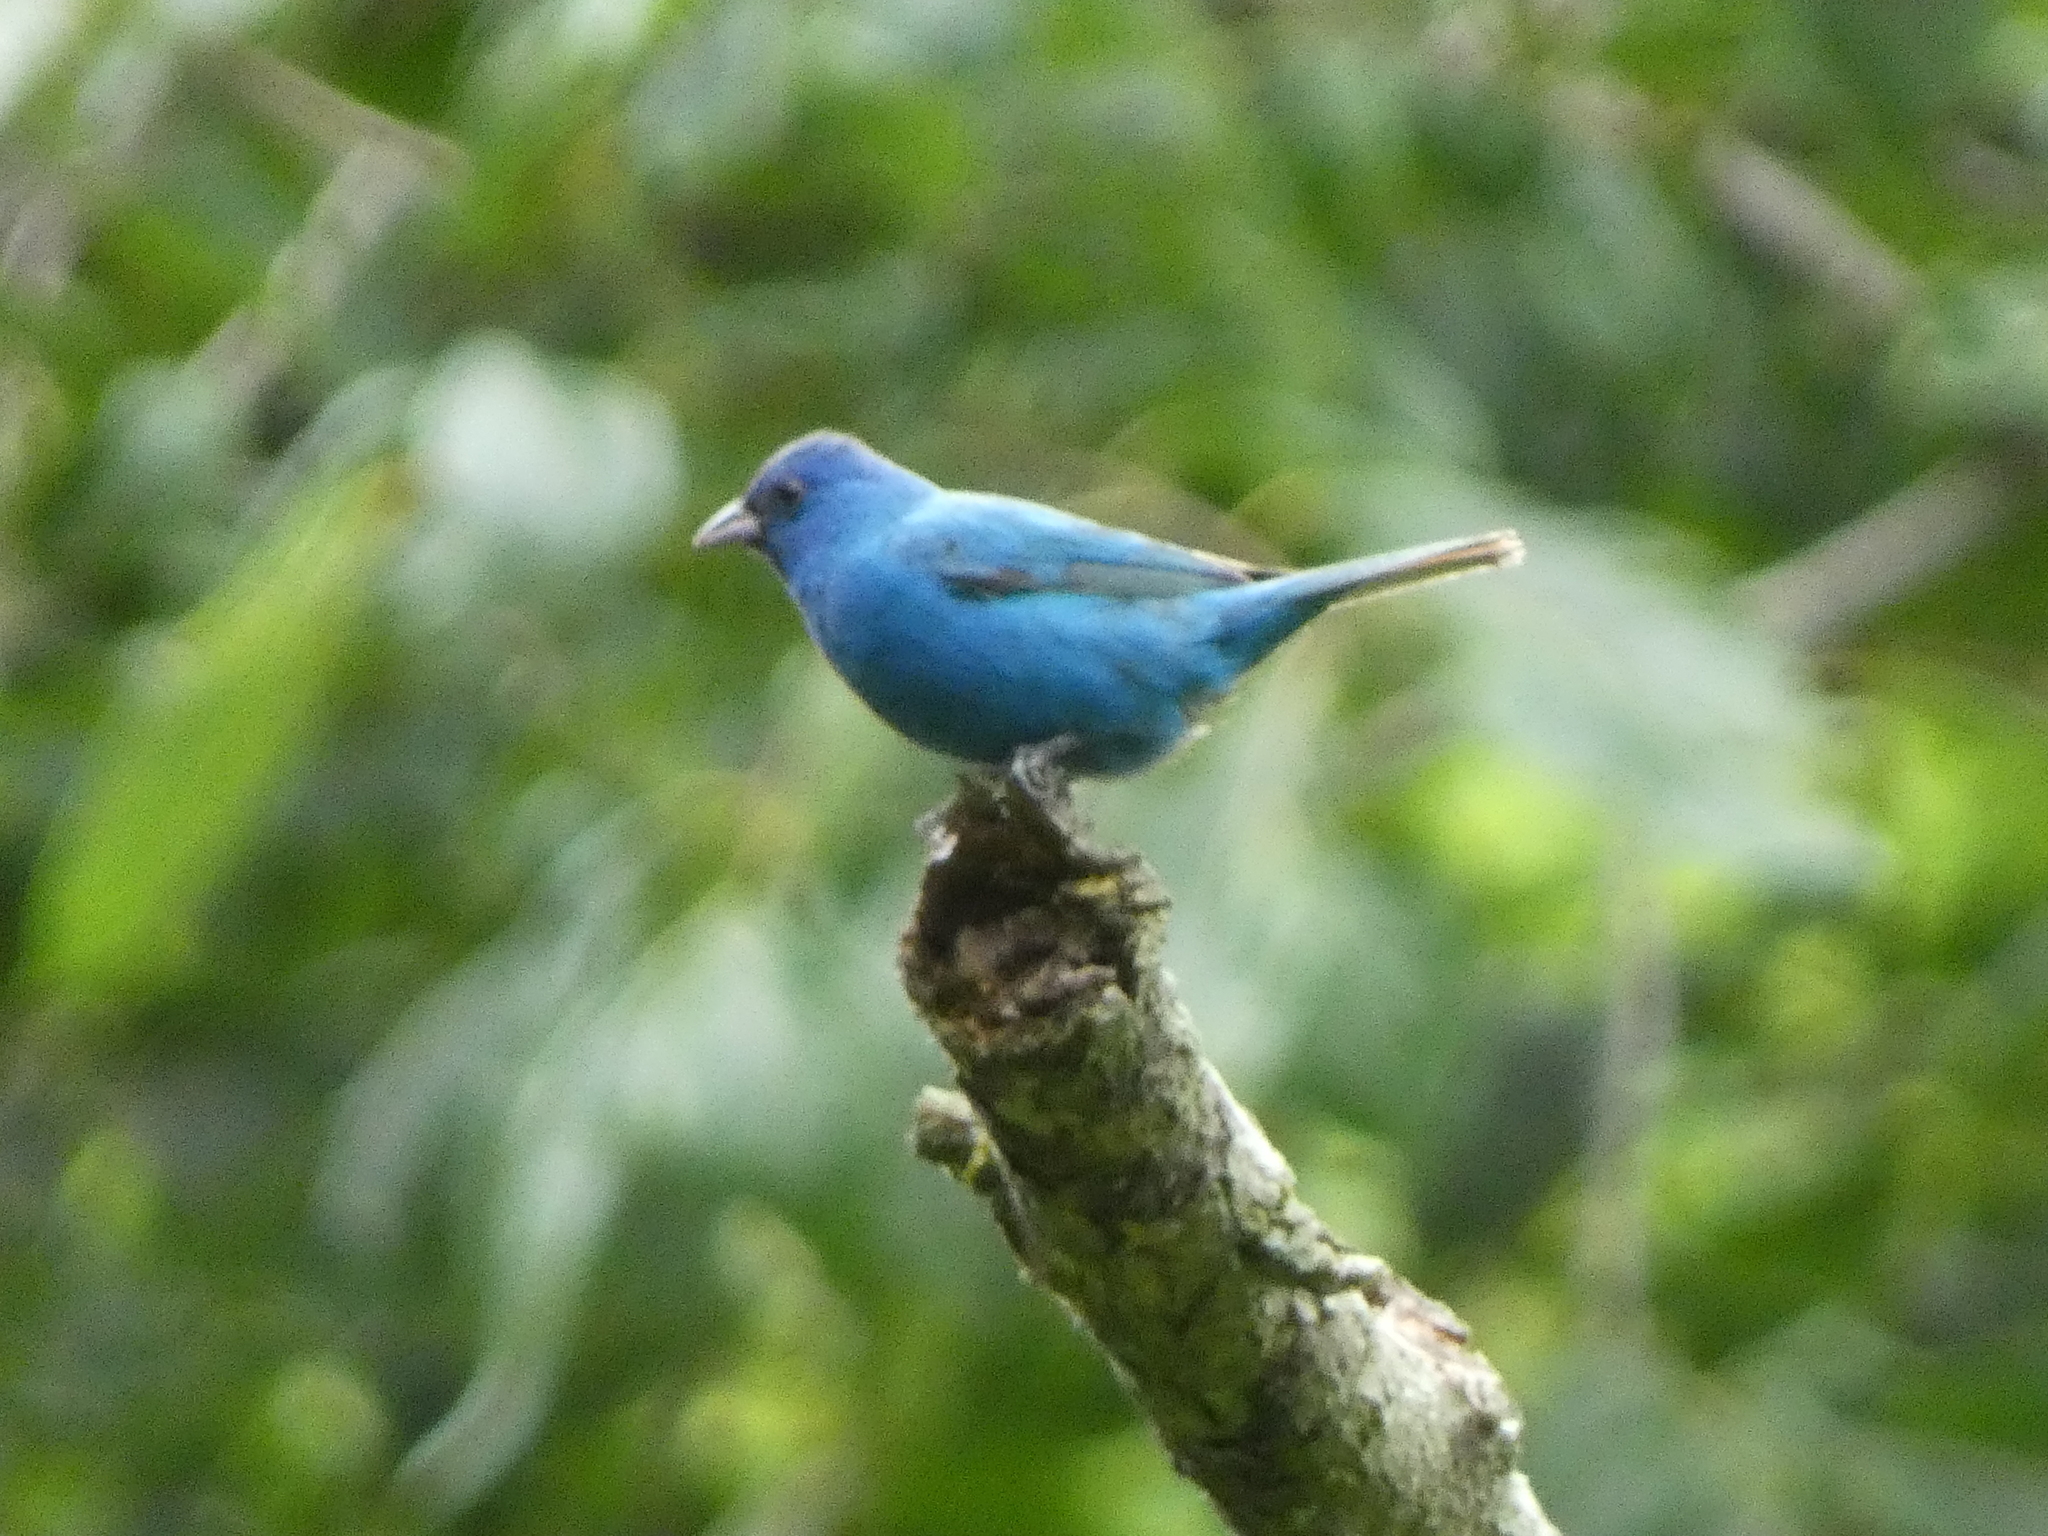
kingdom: Animalia
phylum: Chordata
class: Aves
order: Passeriformes
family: Cardinalidae
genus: Passerina
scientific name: Passerina cyanea
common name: Indigo bunting
